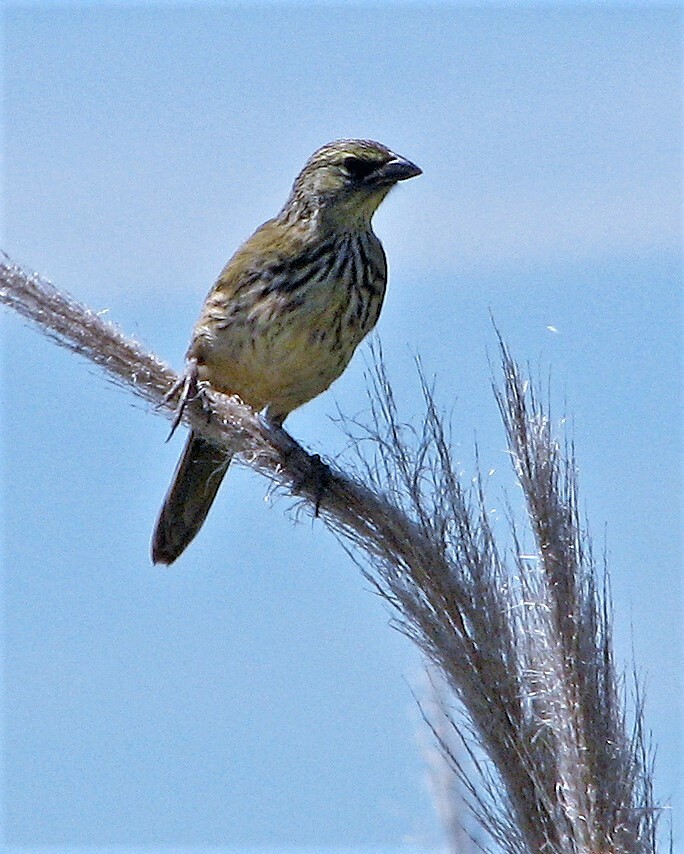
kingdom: Animalia
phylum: Chordata
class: Aves
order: Passeriformes
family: Thraupidae
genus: Embernagra
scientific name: Embernagra platensis
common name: Pampa finch
